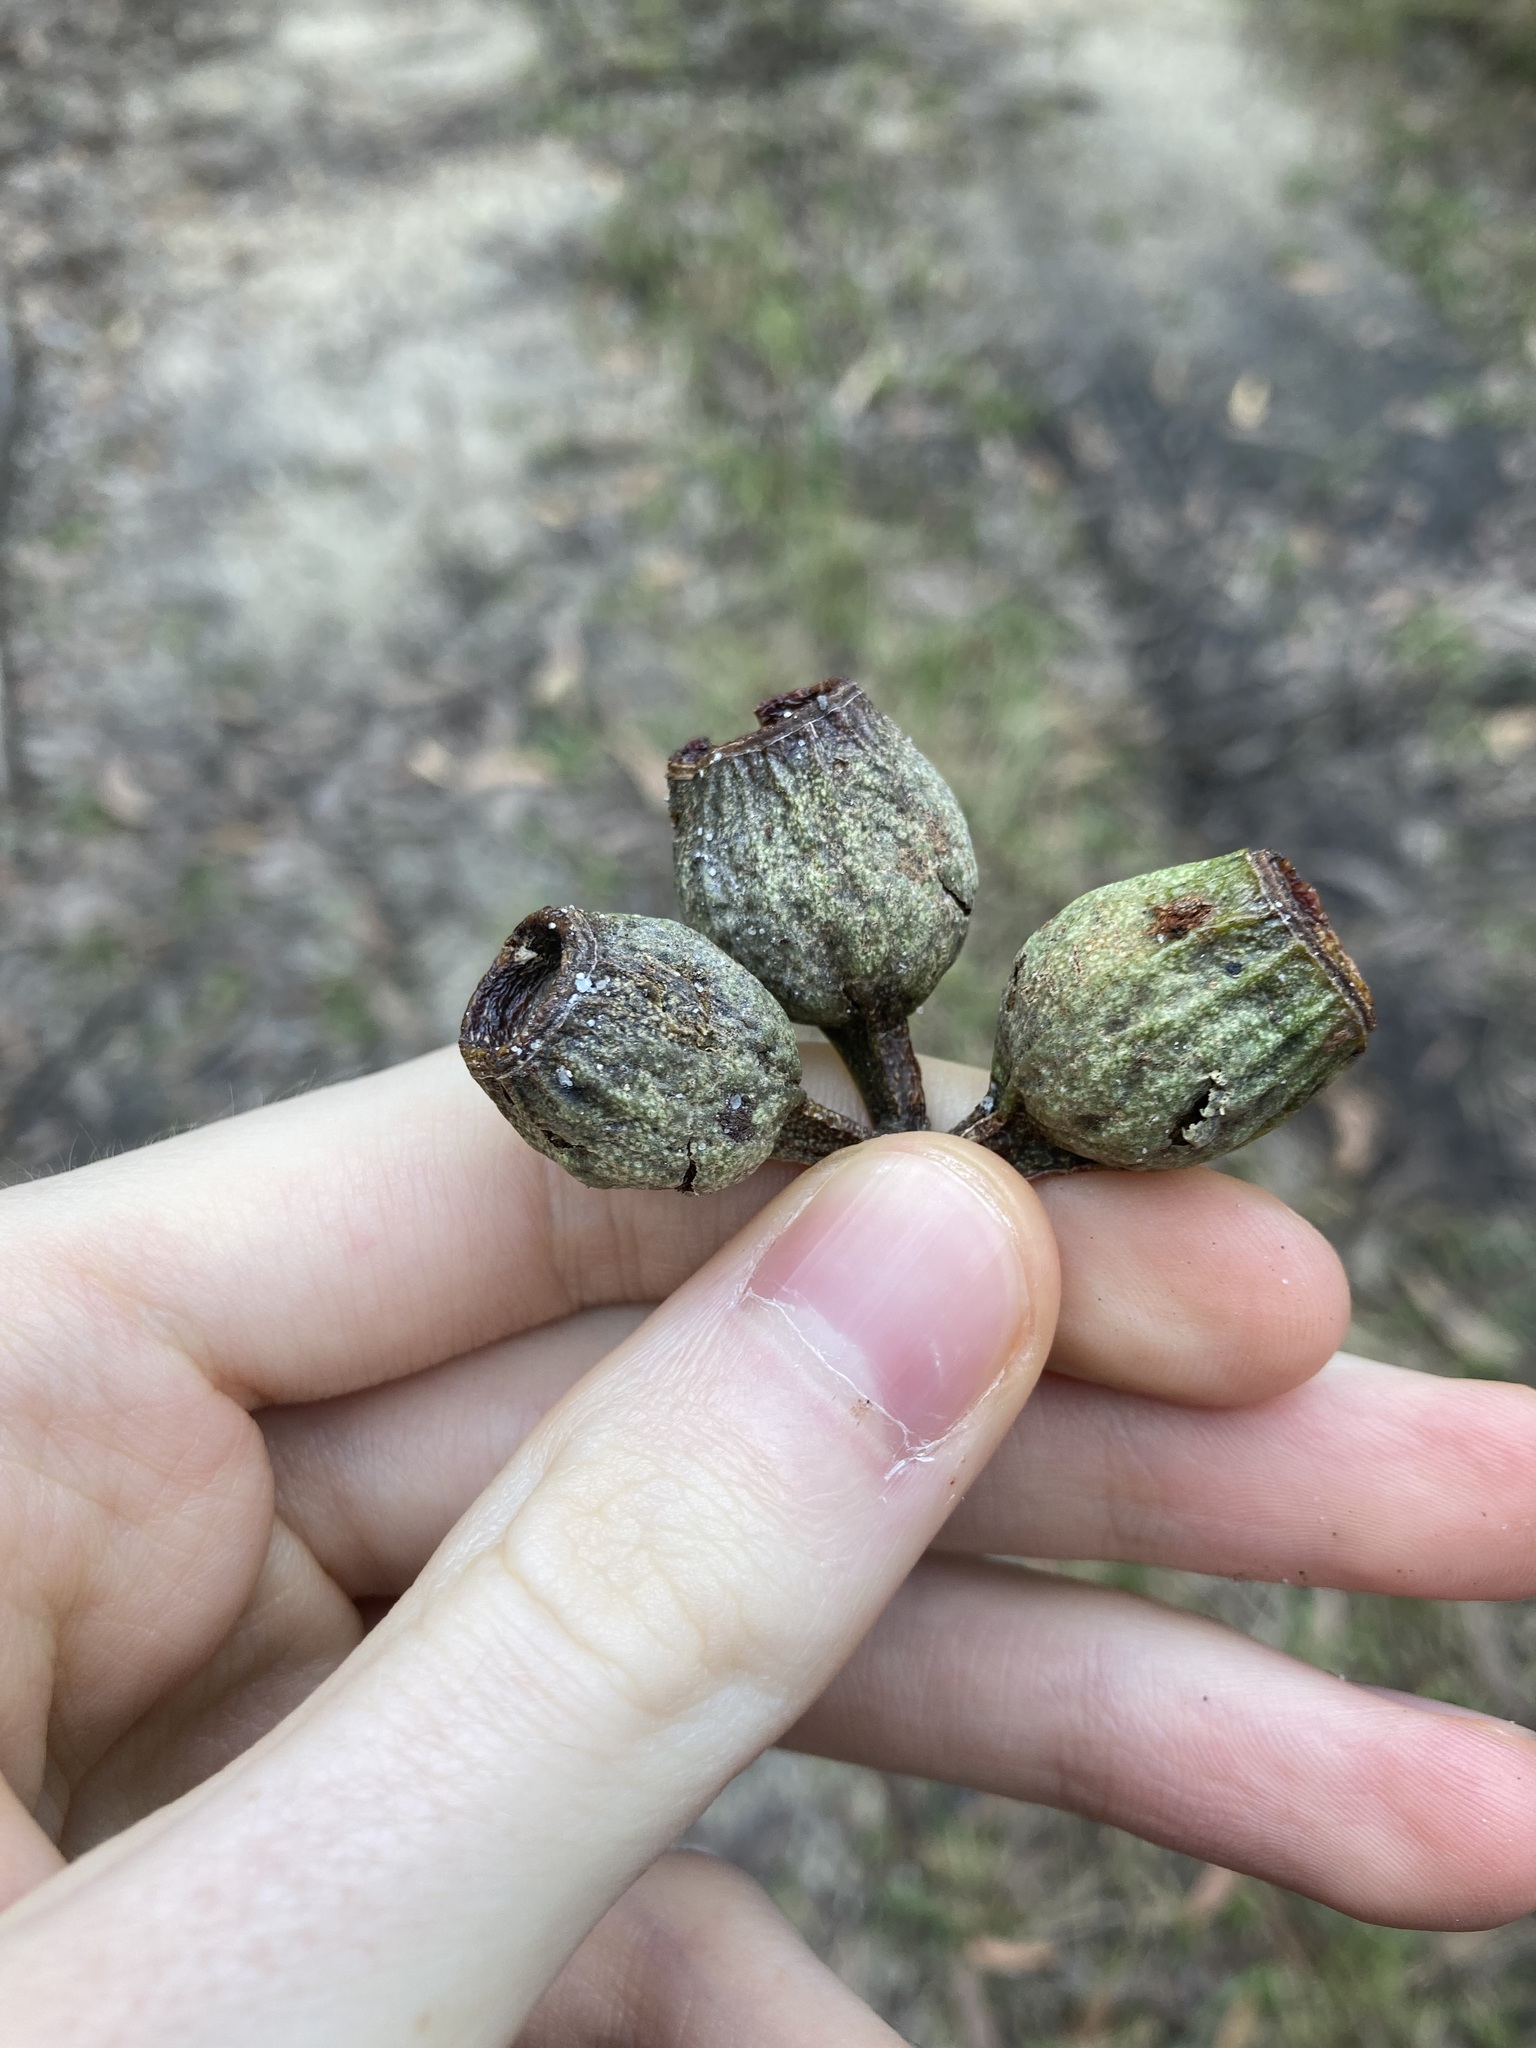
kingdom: Plantae
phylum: Tracheophyta
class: Magnoliopsida
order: Myrtales
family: Myrtaceae
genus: Eucalyptus
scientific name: Eucalyptus planchoniana
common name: Bastard-tallow-wood
